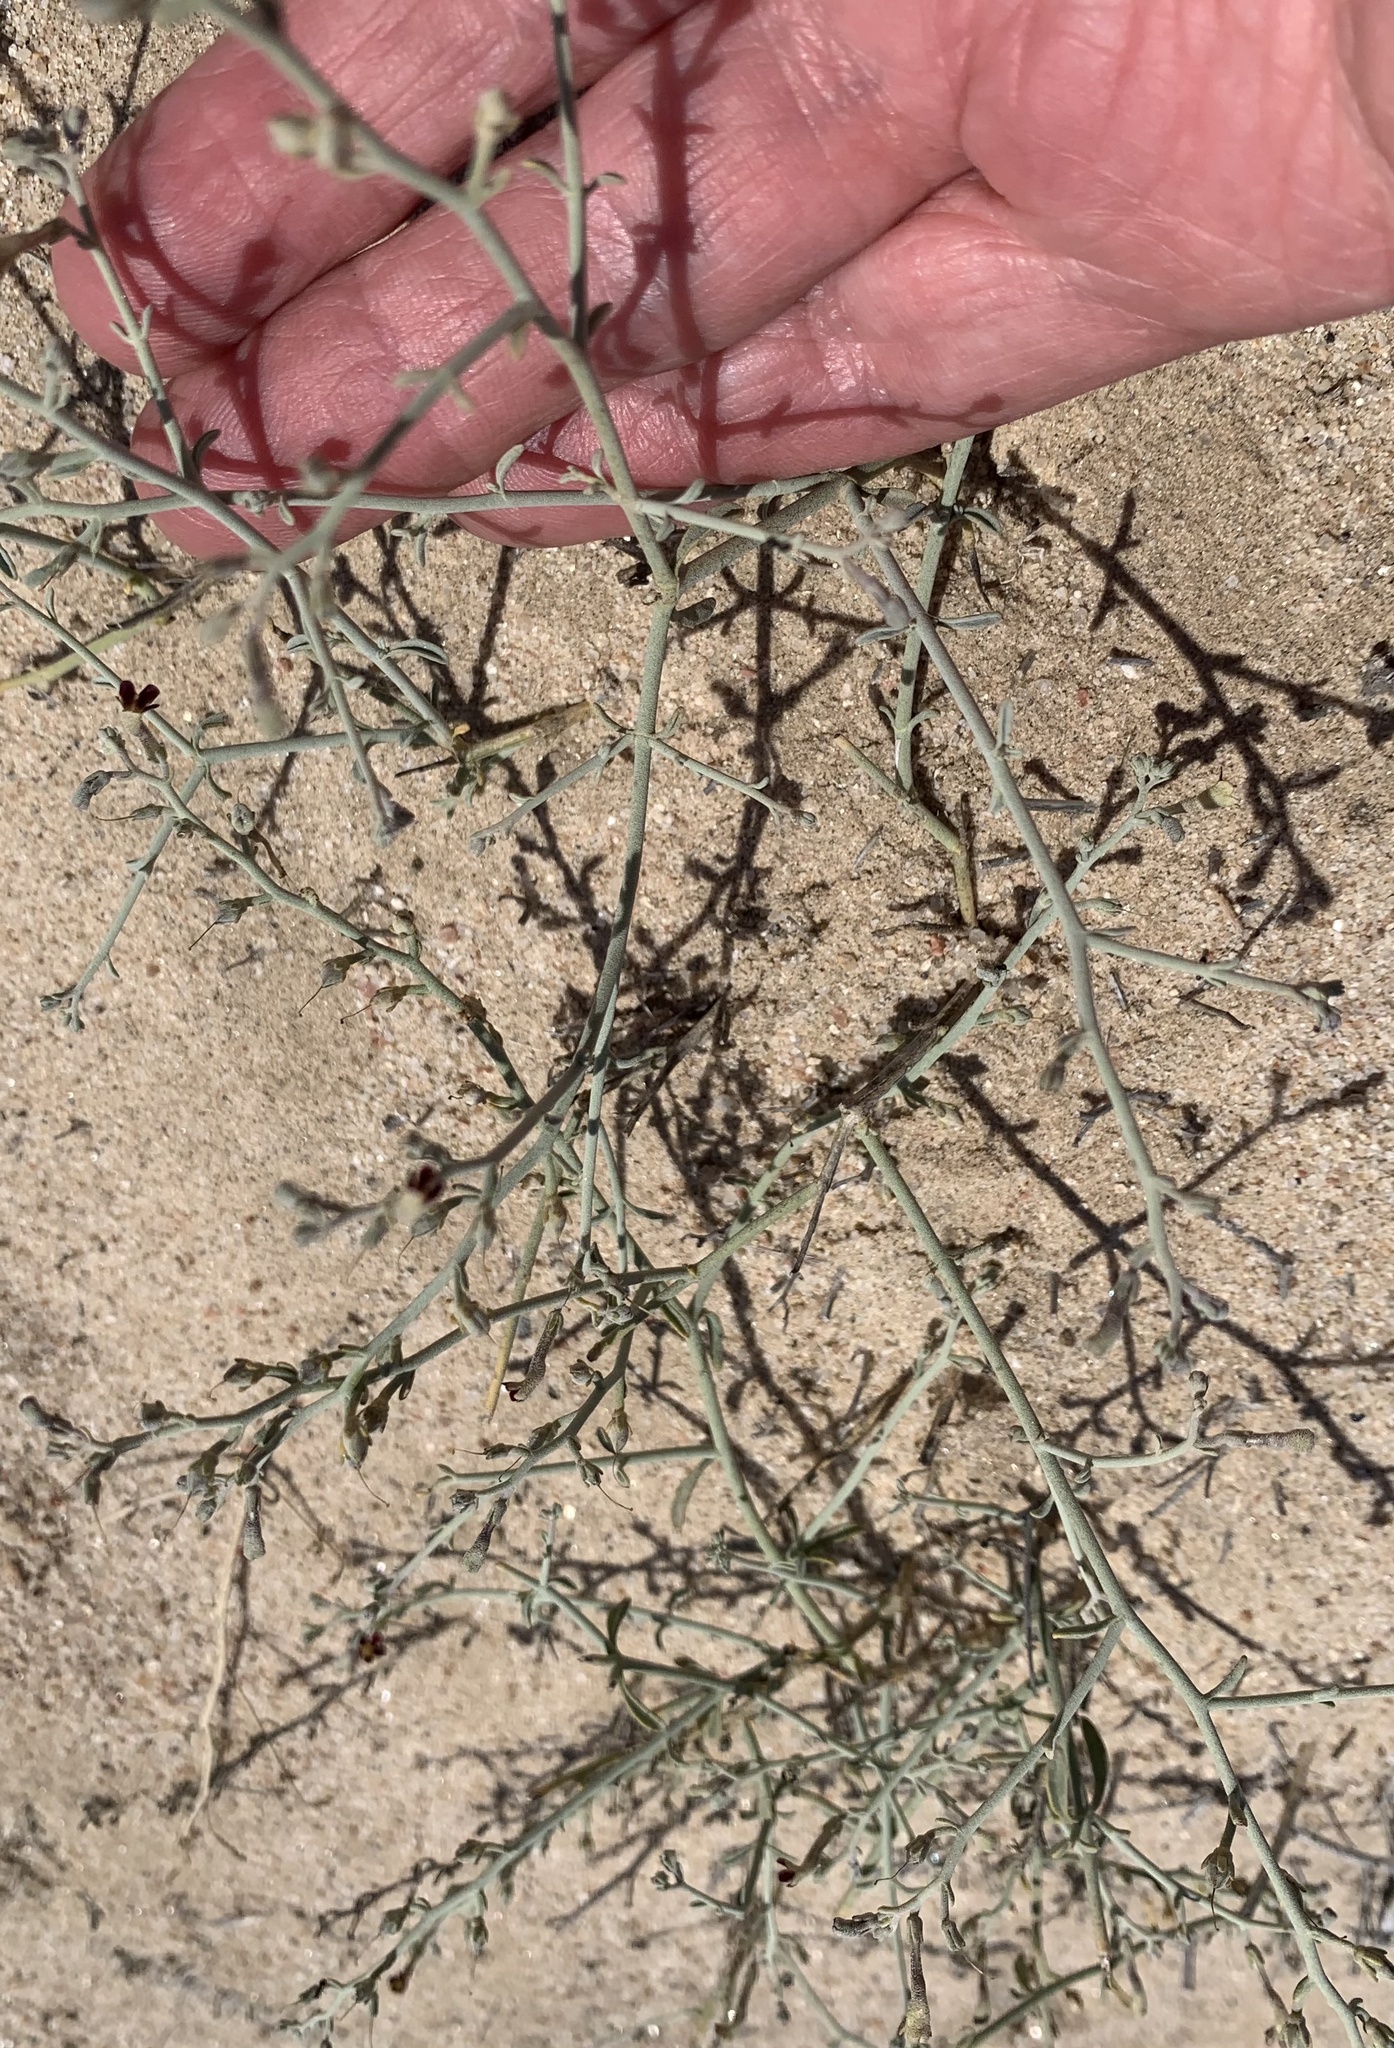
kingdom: Plantae
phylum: Tracheophyta
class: Magnoliopsida
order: Caryophyllales
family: Amaranthaceae
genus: Calicorema
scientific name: Calicorema capitata
